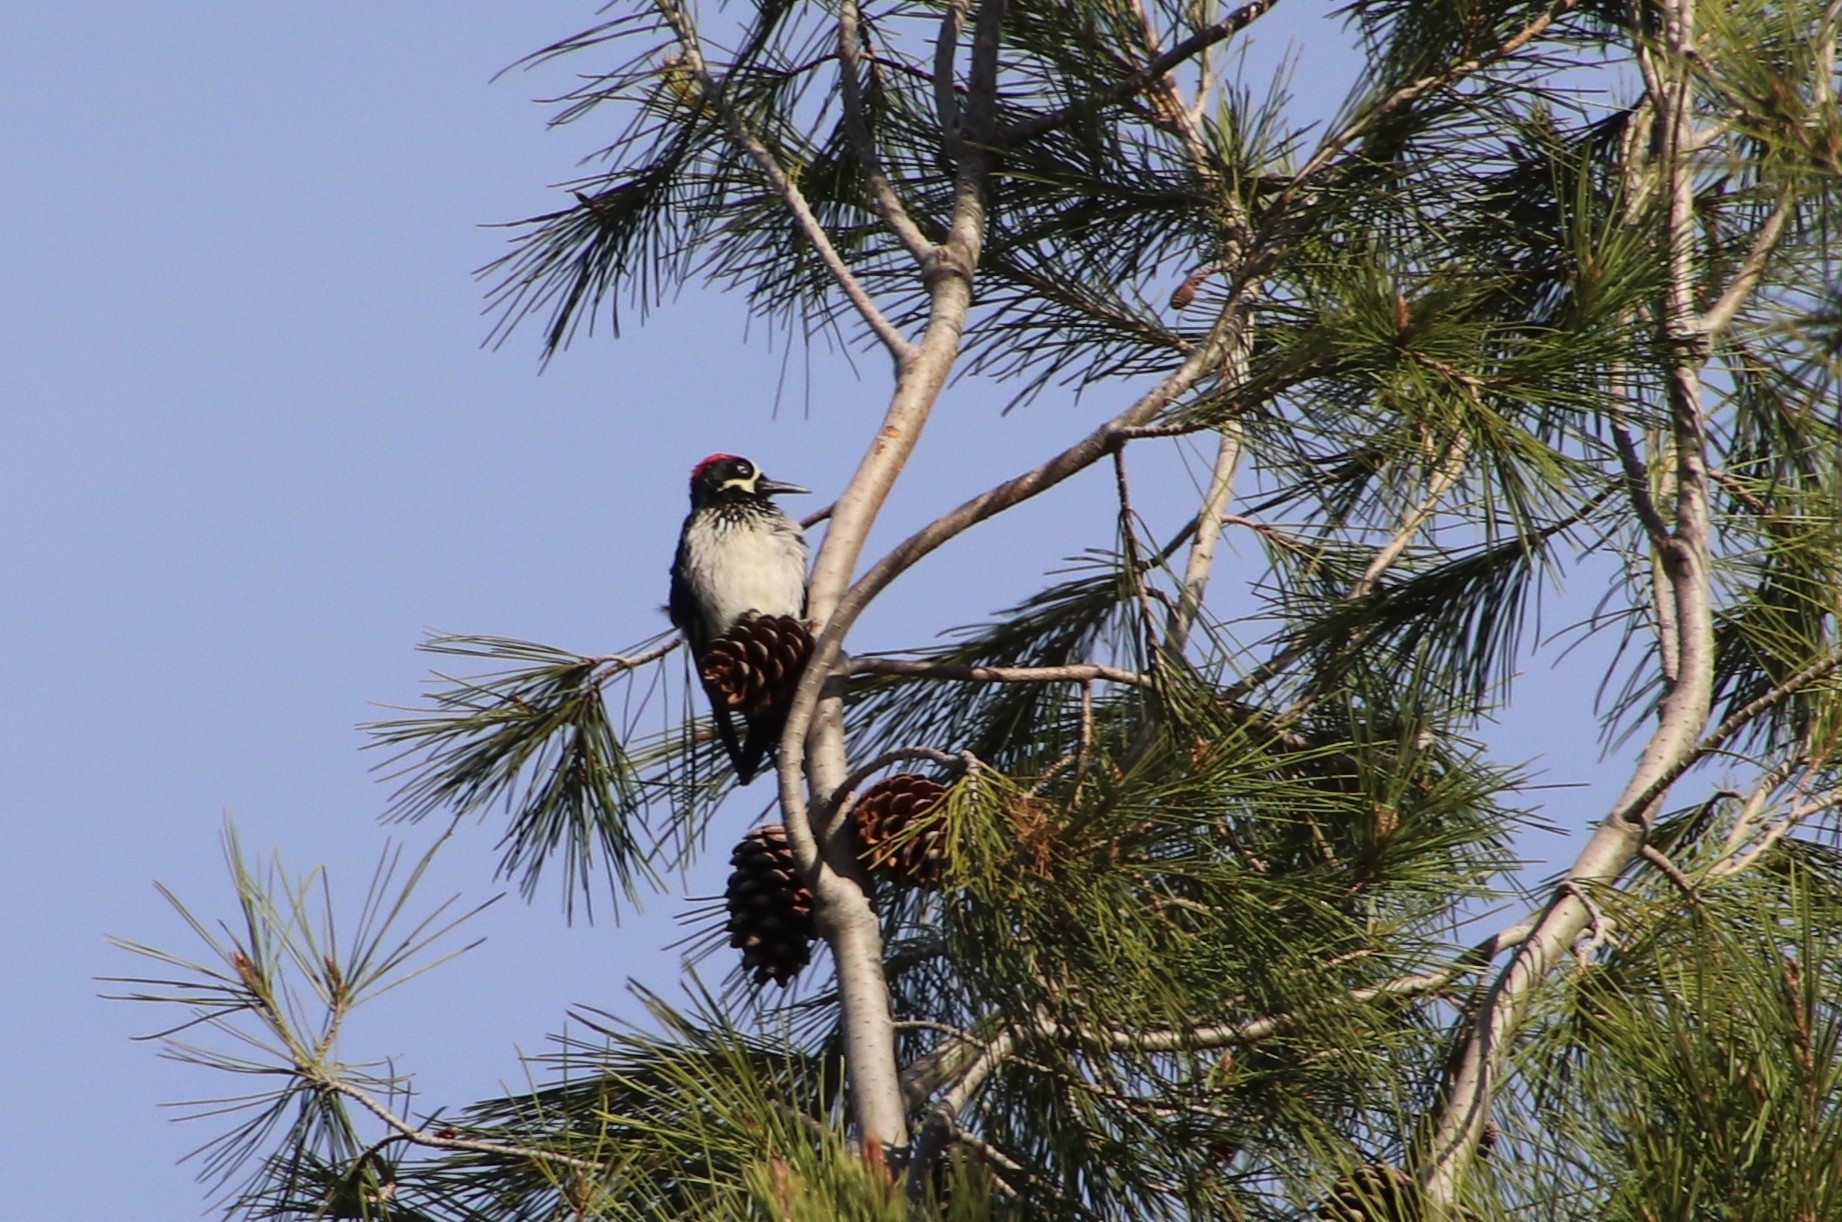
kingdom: Animalia
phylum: Chordata
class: Aves
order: Piciformes
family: Picidae
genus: Melanerpes
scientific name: Melanerpes formicivorus
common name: Acorn woodpecker
